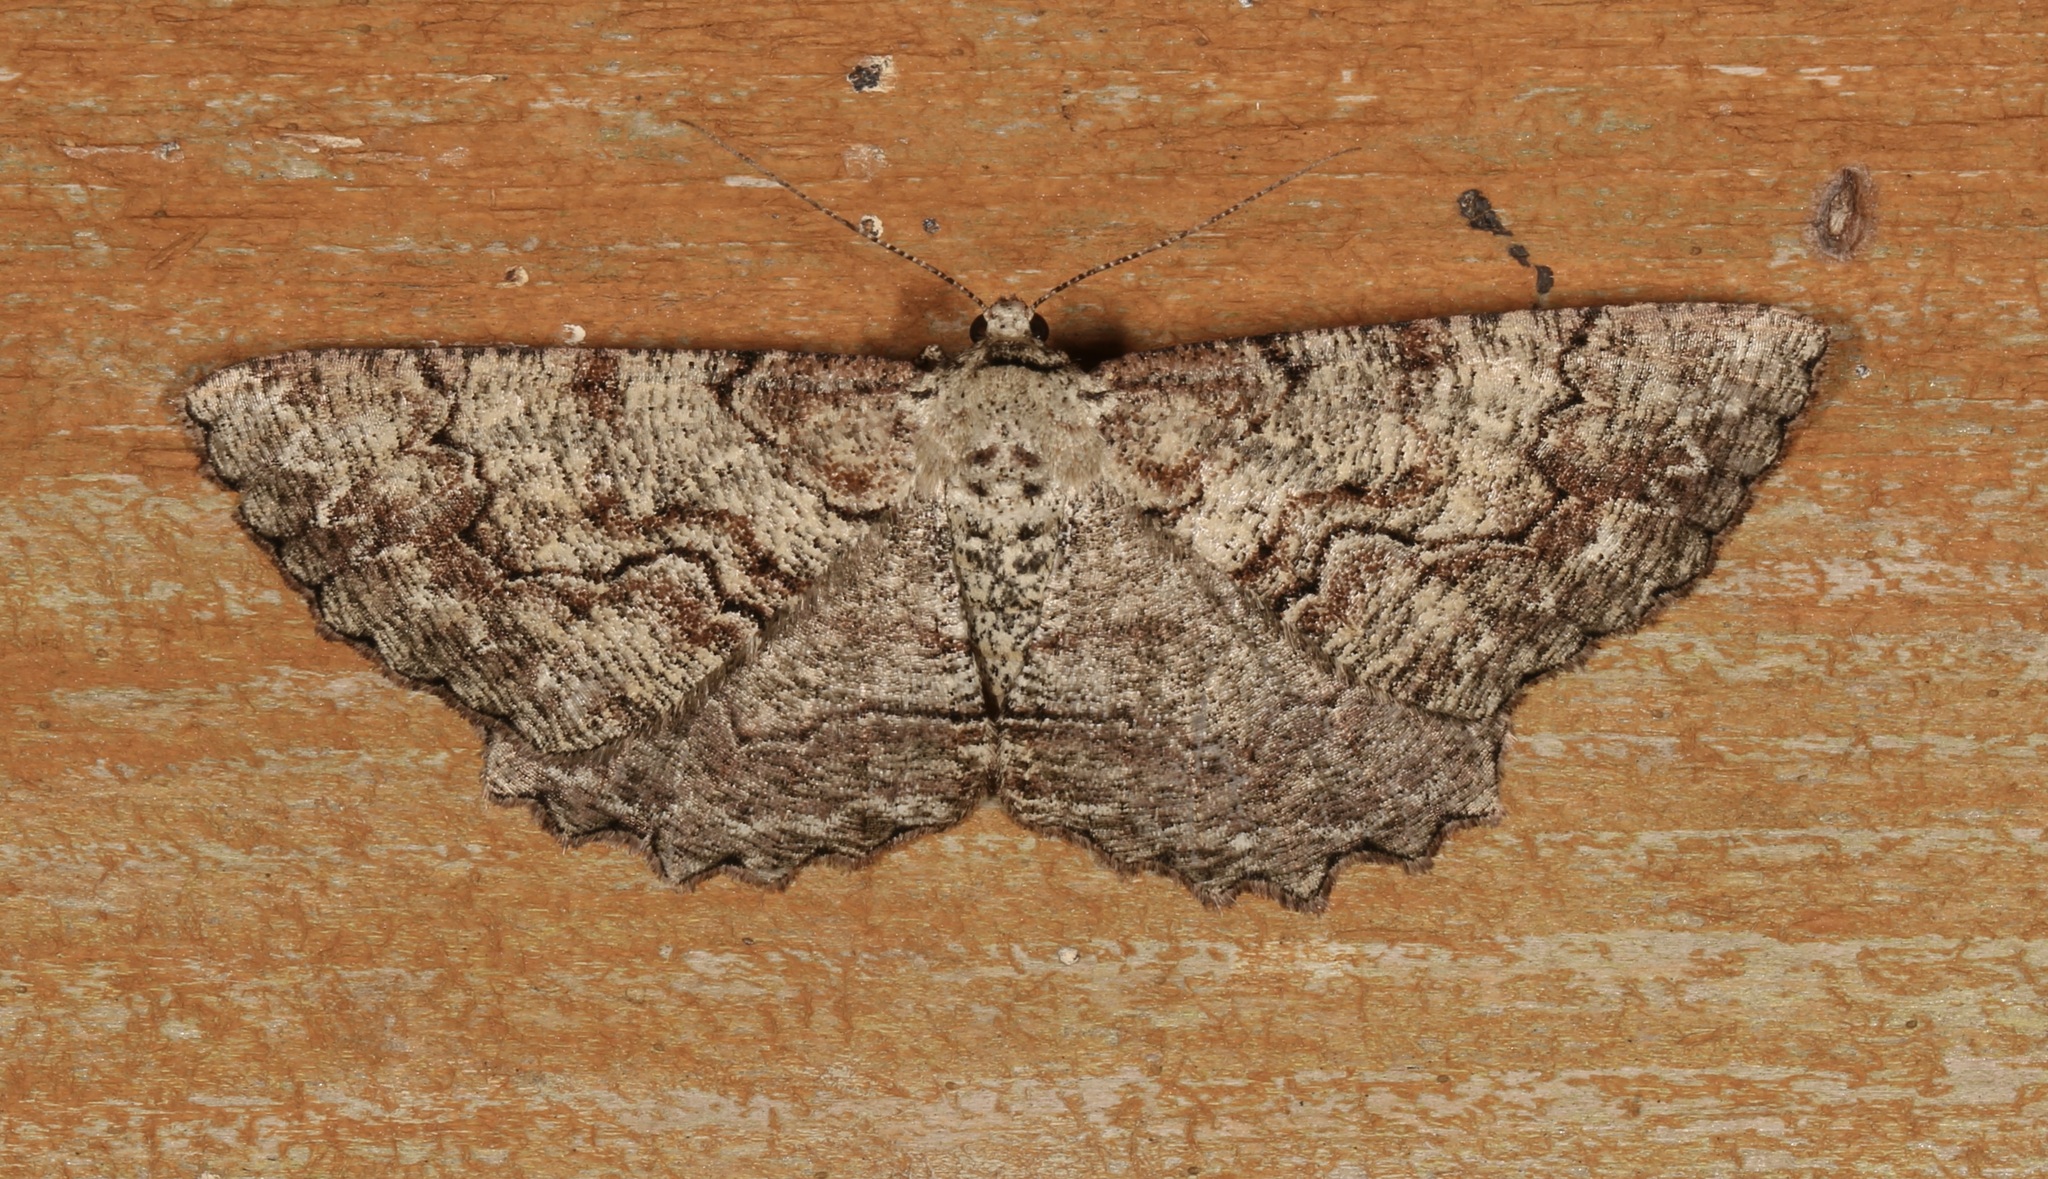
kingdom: Animalia
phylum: Arthropoda
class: Insecta
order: Lepidoptera
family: Geometridae
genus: Cymatophora
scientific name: Cymatophora approximaria
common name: Giant gray moth
